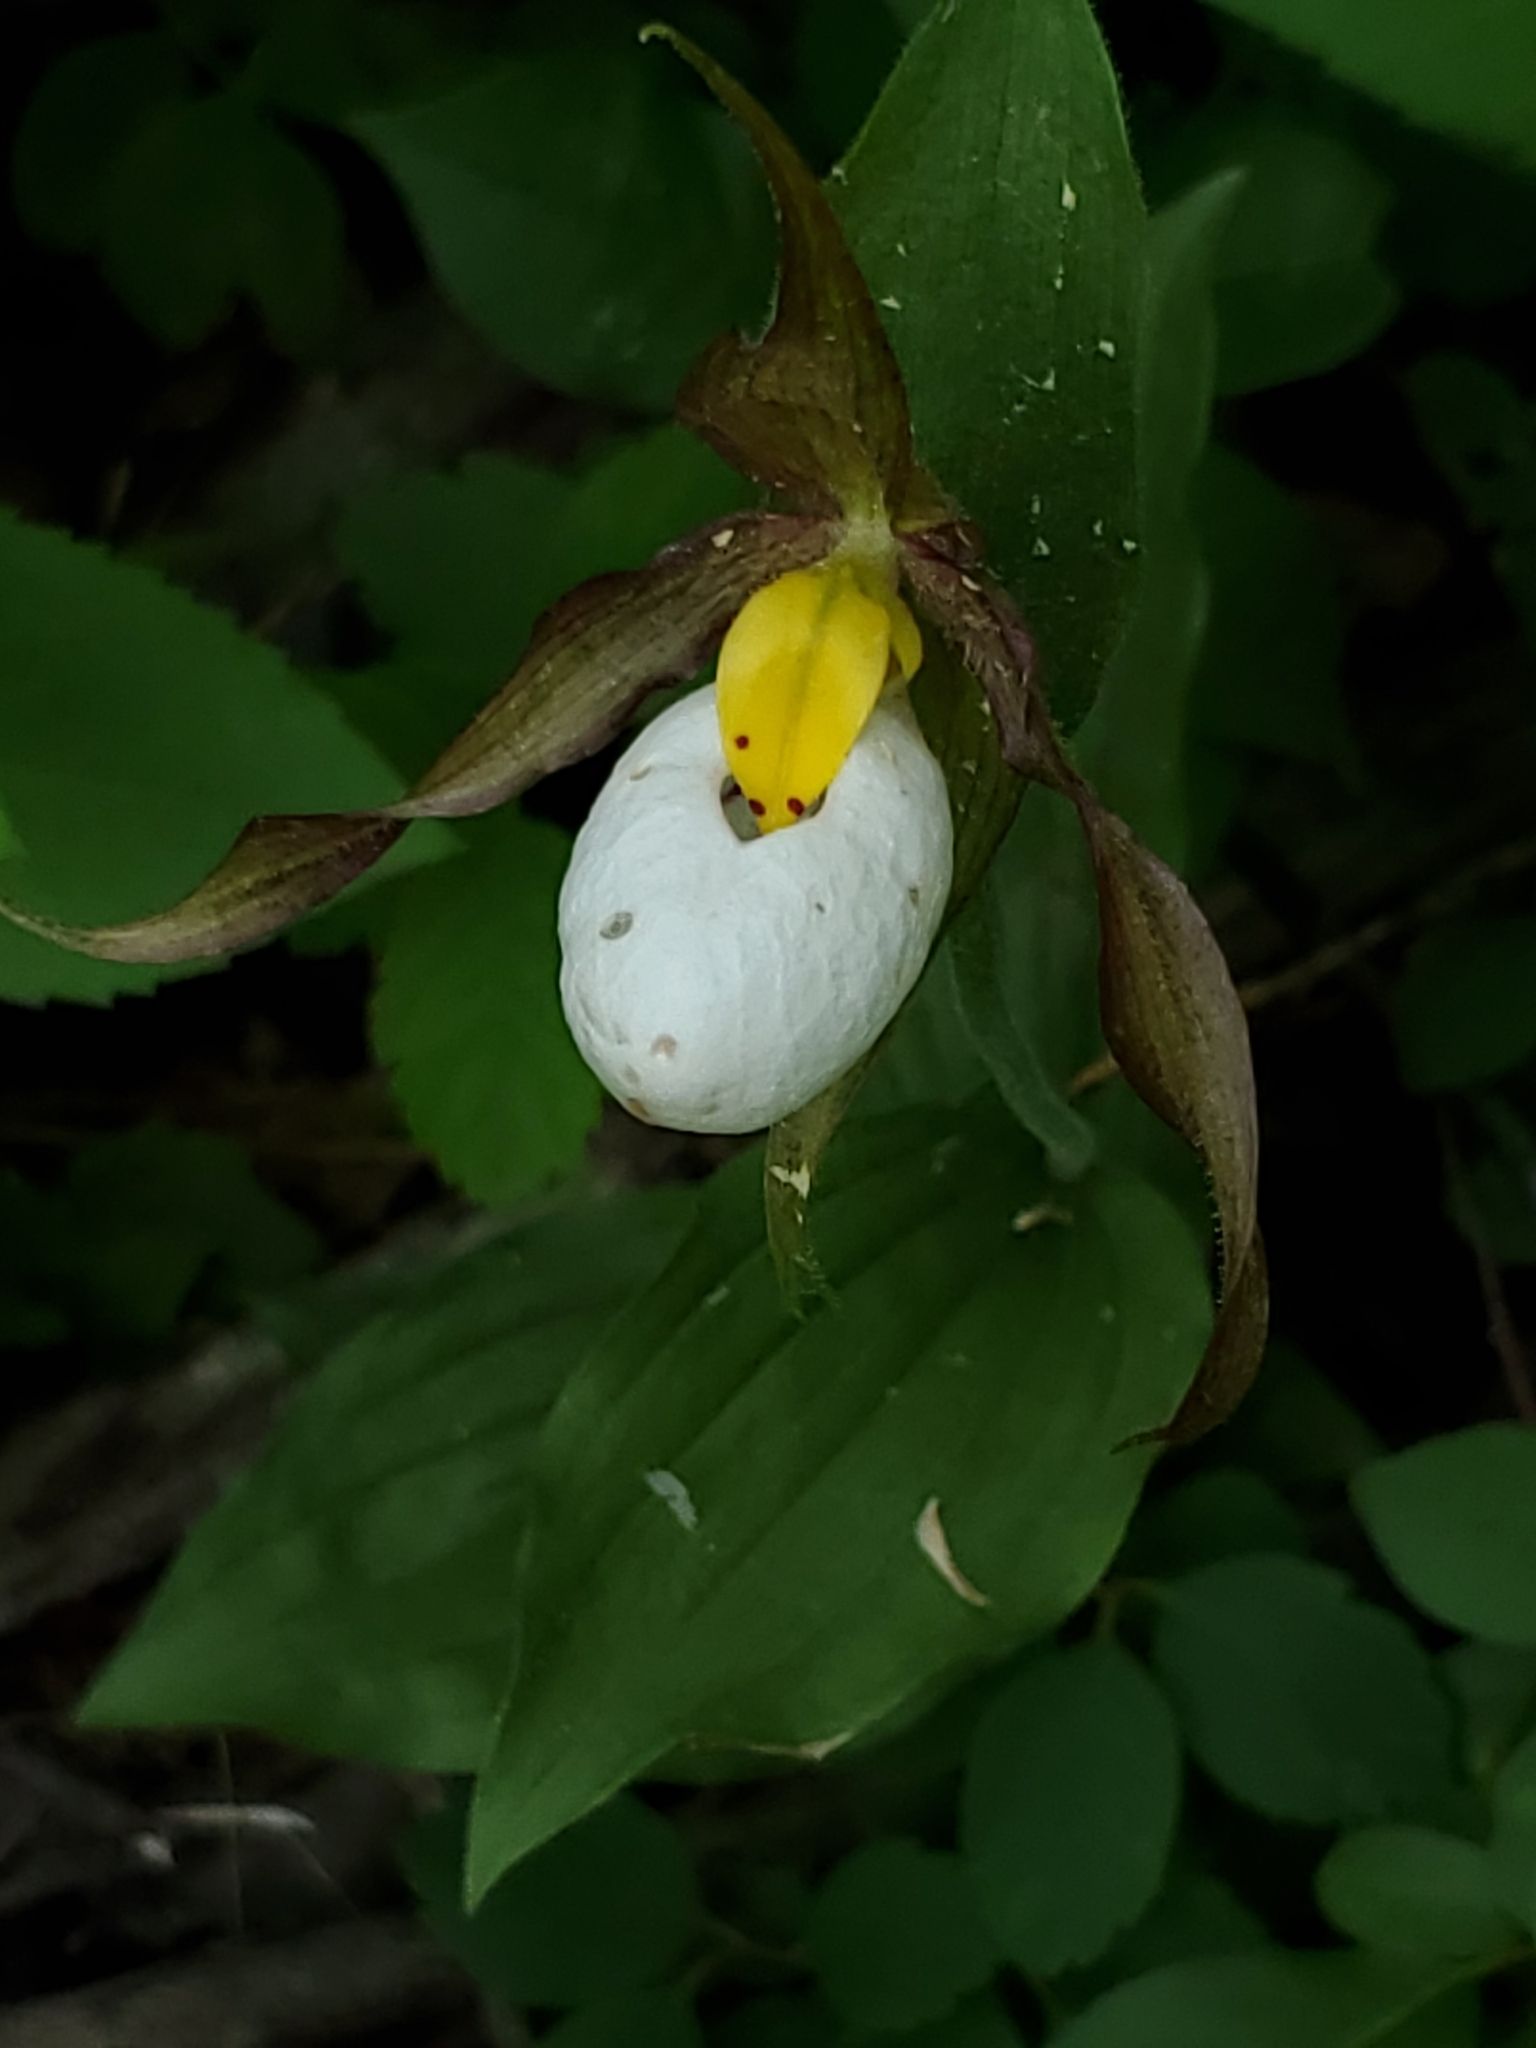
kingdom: Plantae
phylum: Tracheophyta
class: Liliopsida
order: Asparagales
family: Orchidaceae
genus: Cypripedium
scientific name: Cypripedium montanum
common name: Mountain lady's-slipper
